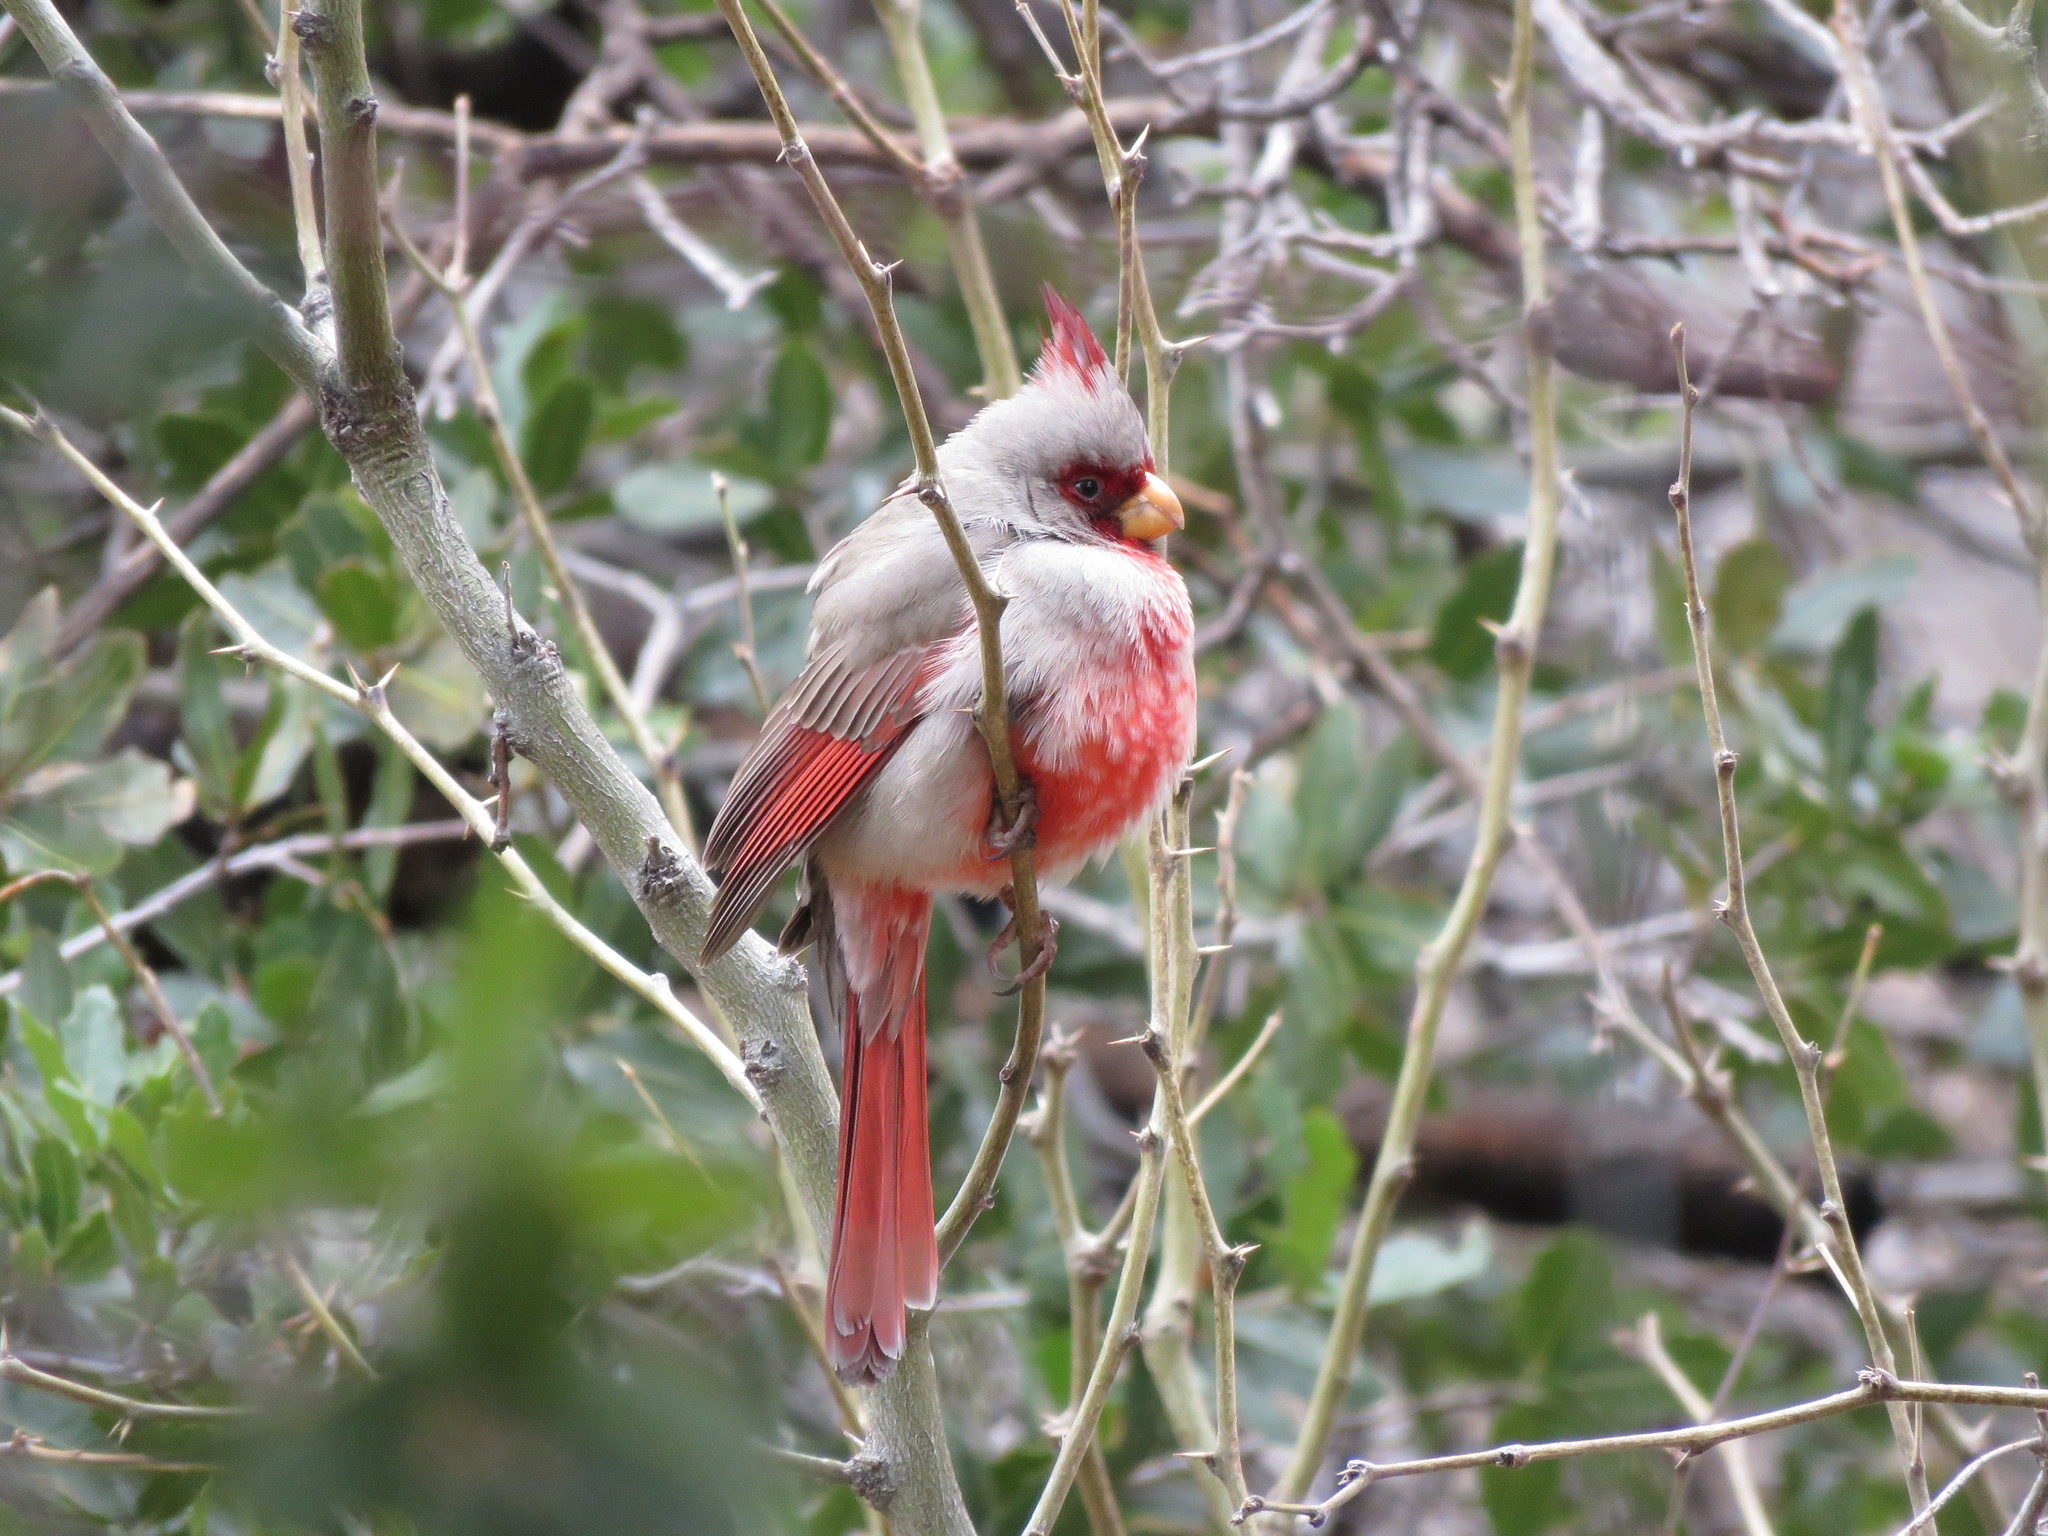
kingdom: Animalia
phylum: Chordata
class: Aves
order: Passeriformes
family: Cardinalidae
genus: Cardinalis
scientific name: Cardinalis sinuatus
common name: Pyrrhuloxia
